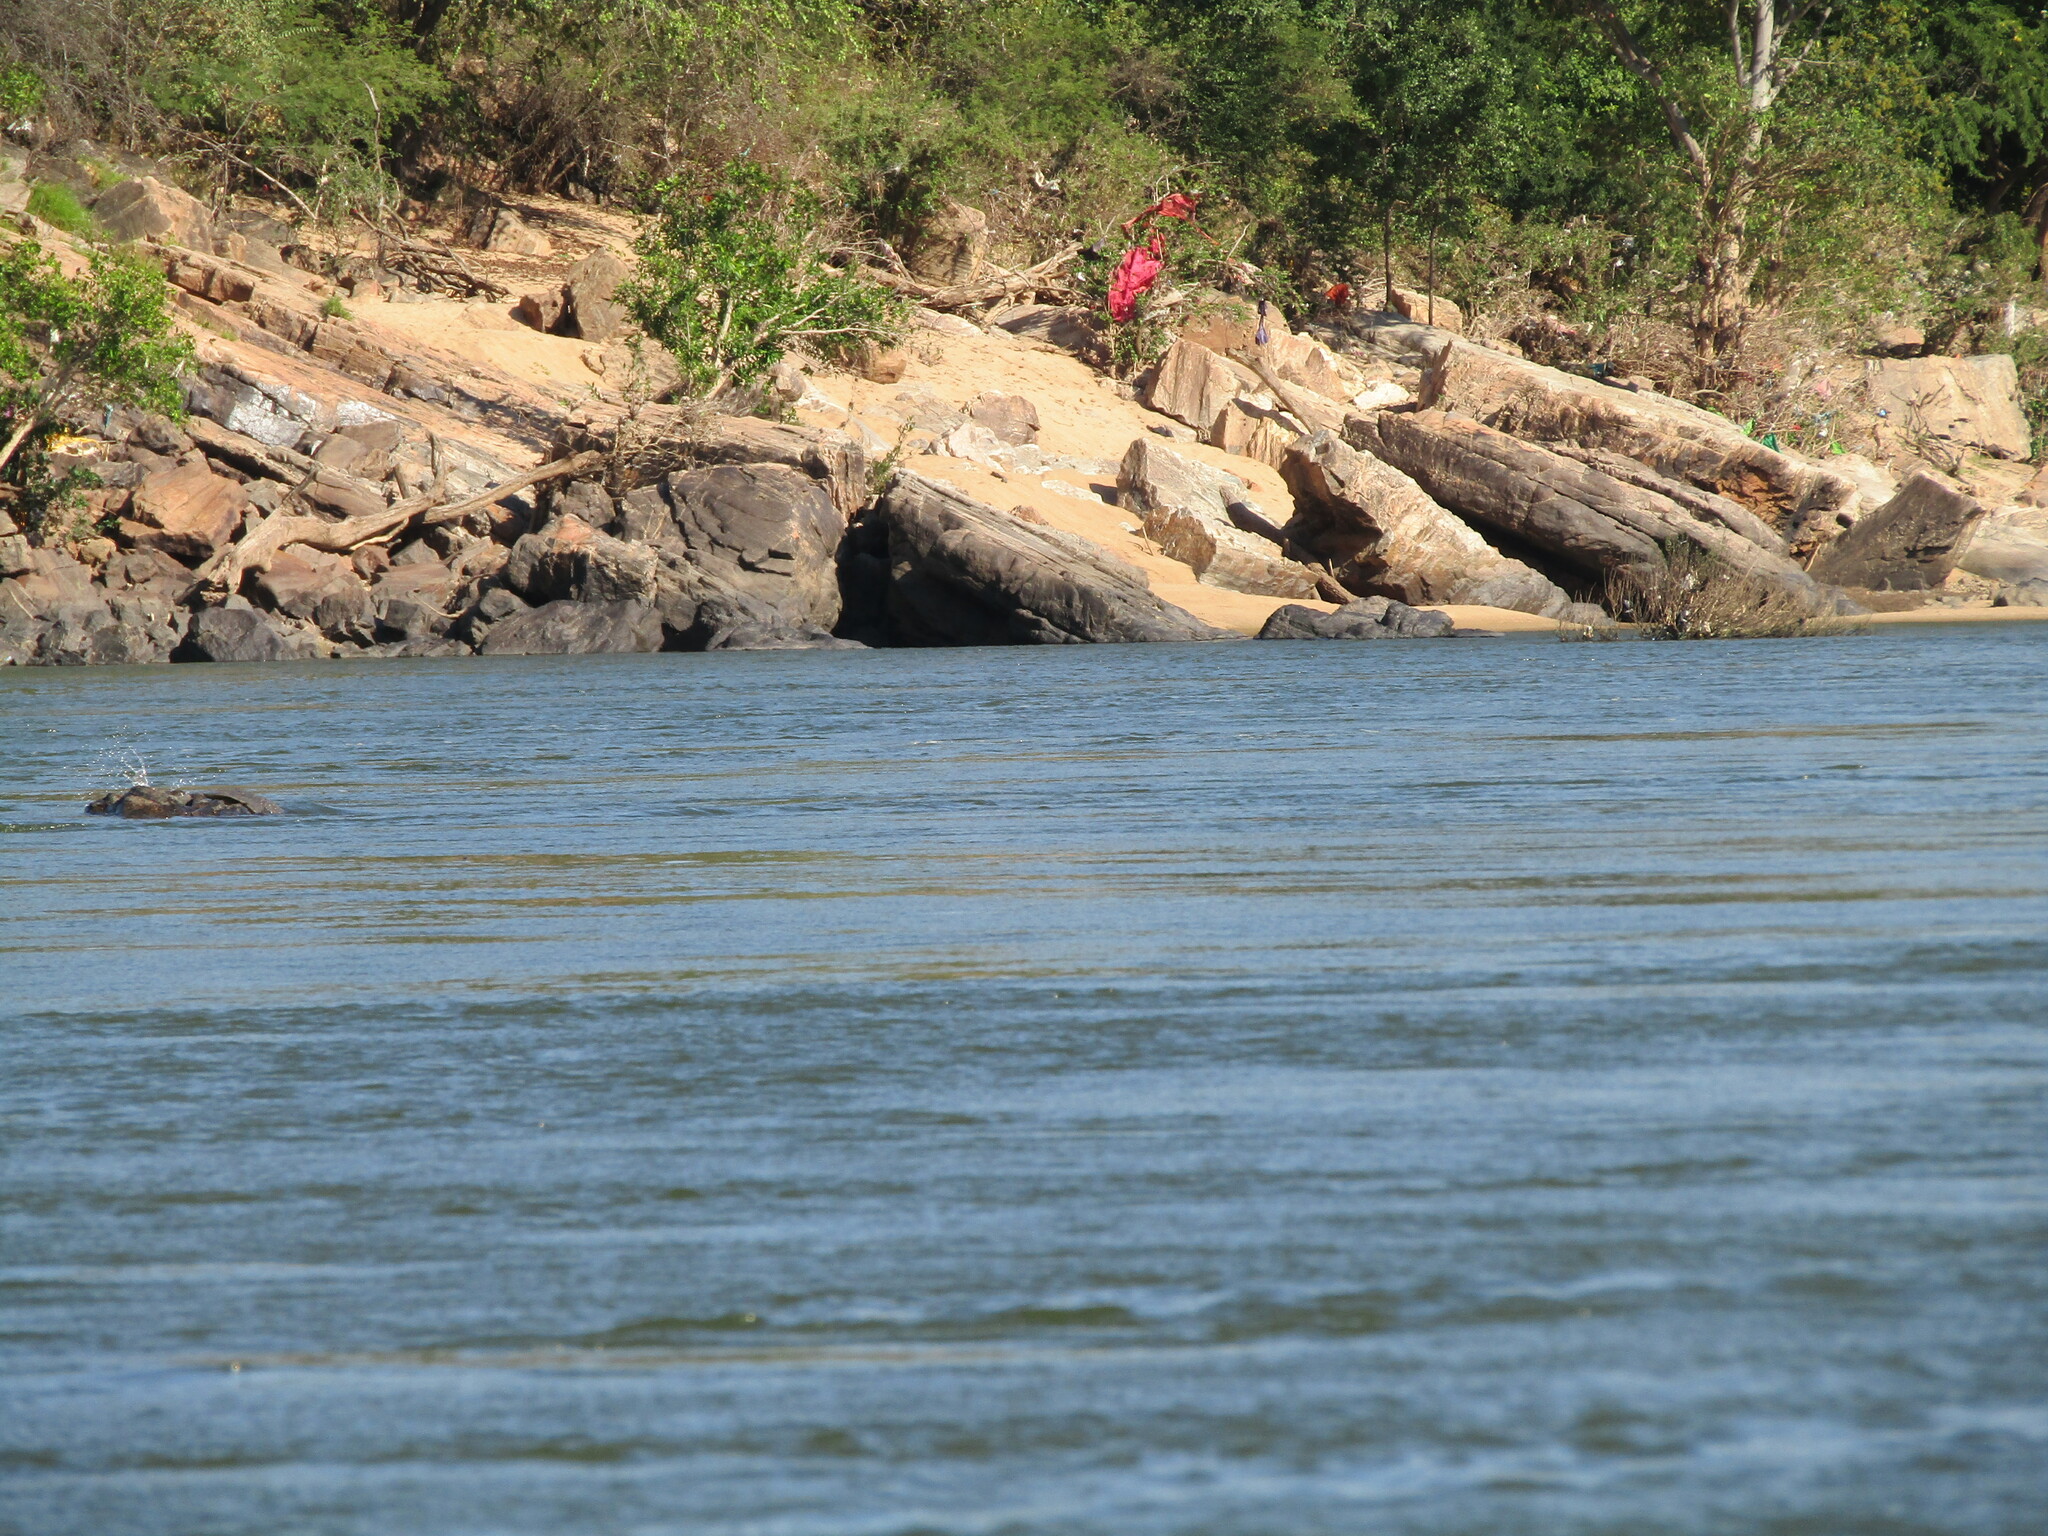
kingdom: Animalia
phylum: Chordata
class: Testudines
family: Trionychidae
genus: Nilssonia
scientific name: Nilssonia leithii
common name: Leiths softshell turtle
